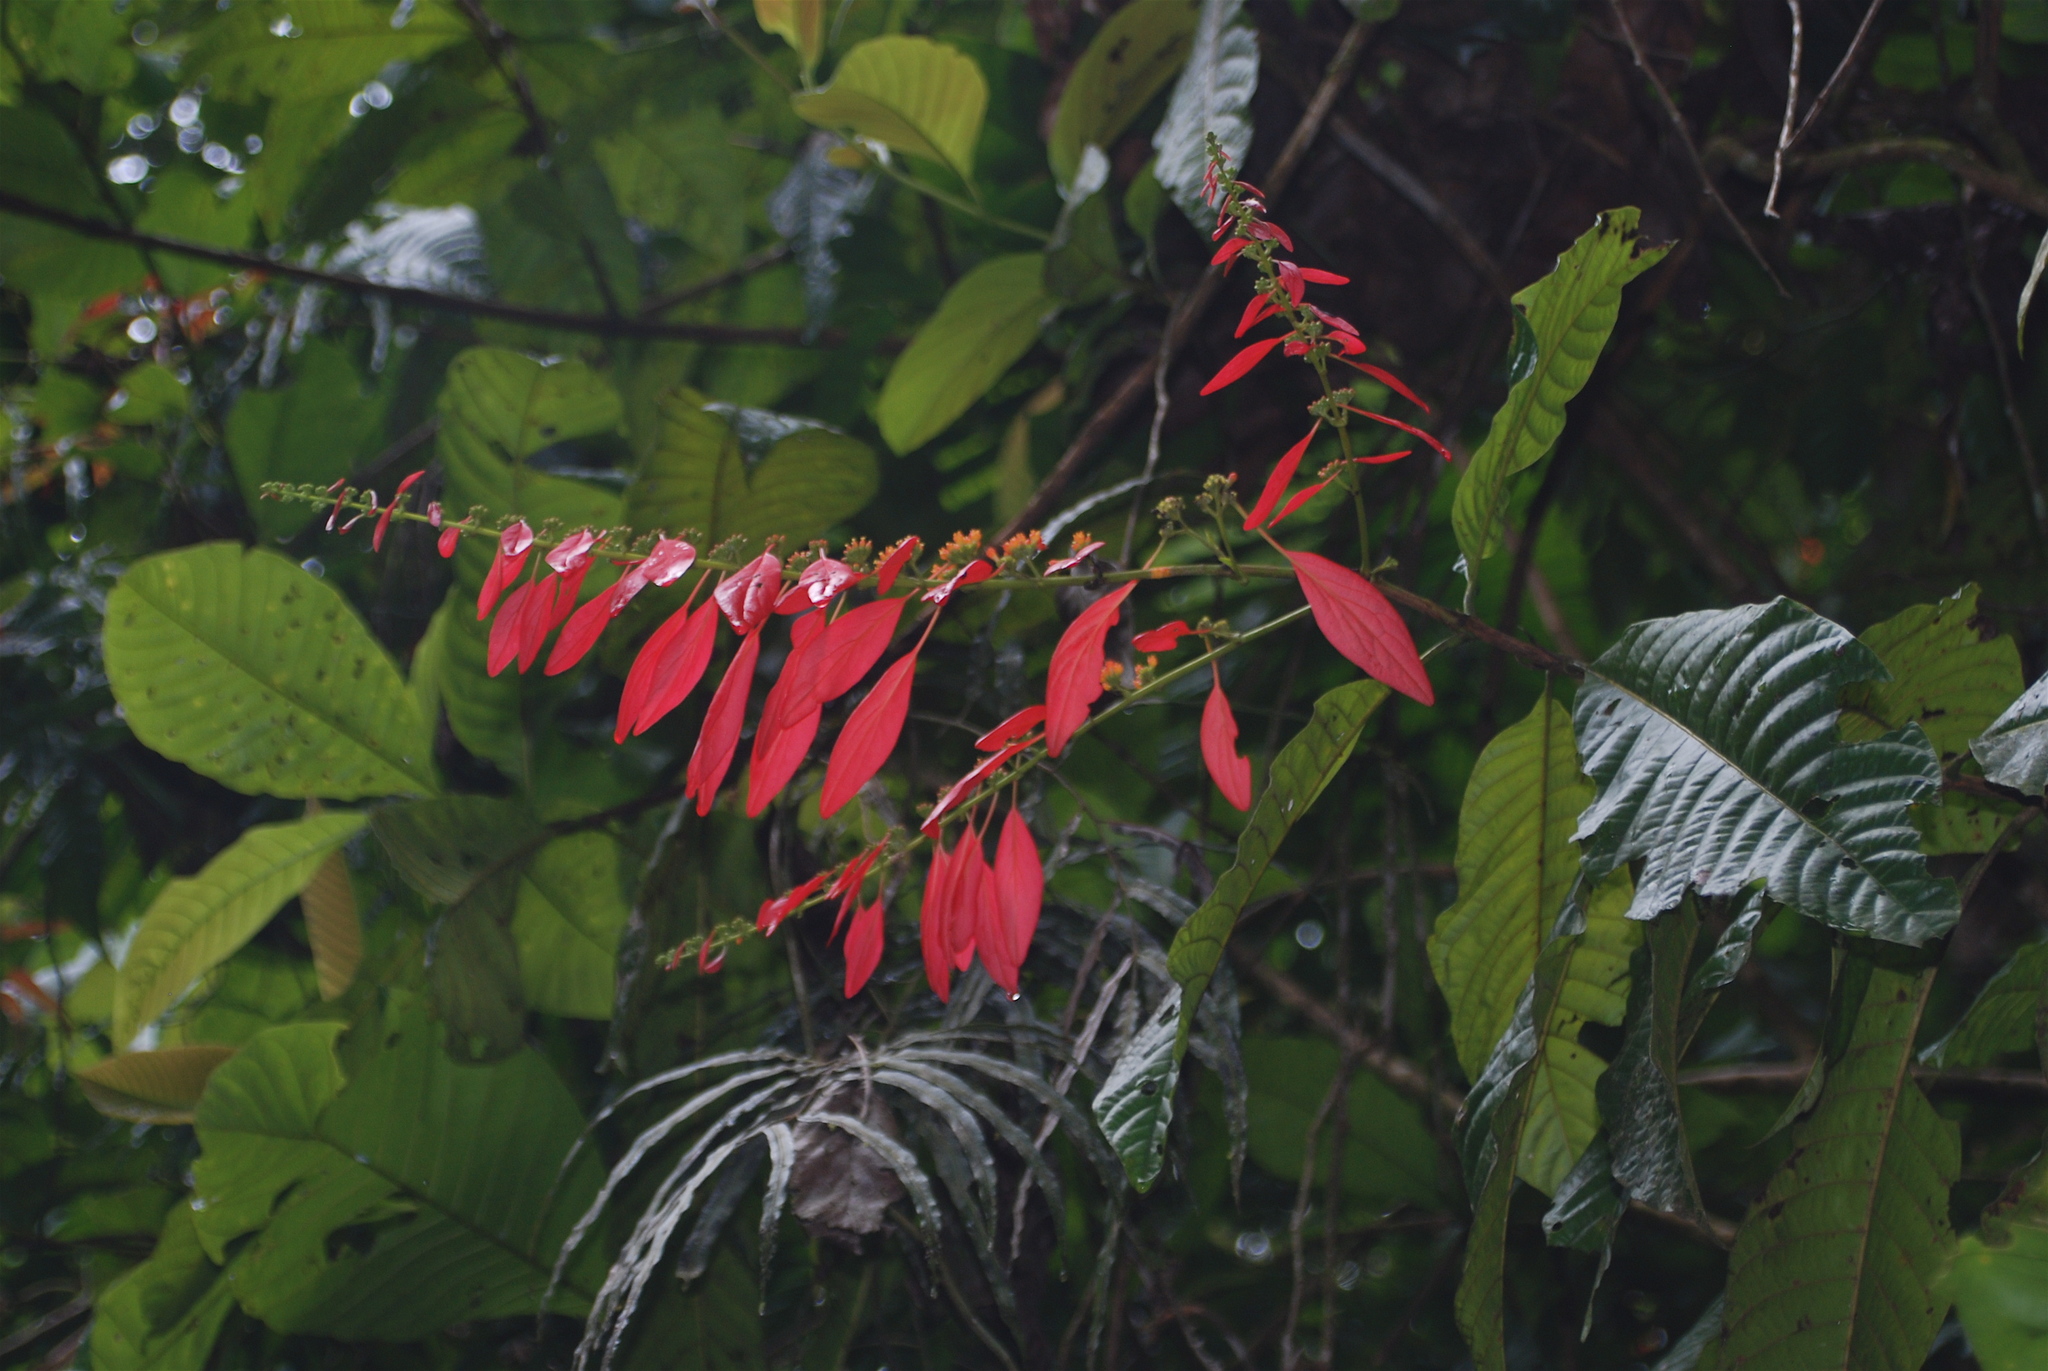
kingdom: Plantae
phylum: Tracheophyta
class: Magnoliopsida
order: Gentianales
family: Rubiaceae
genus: Warszewiczia
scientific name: Warszewiczia coccinea
